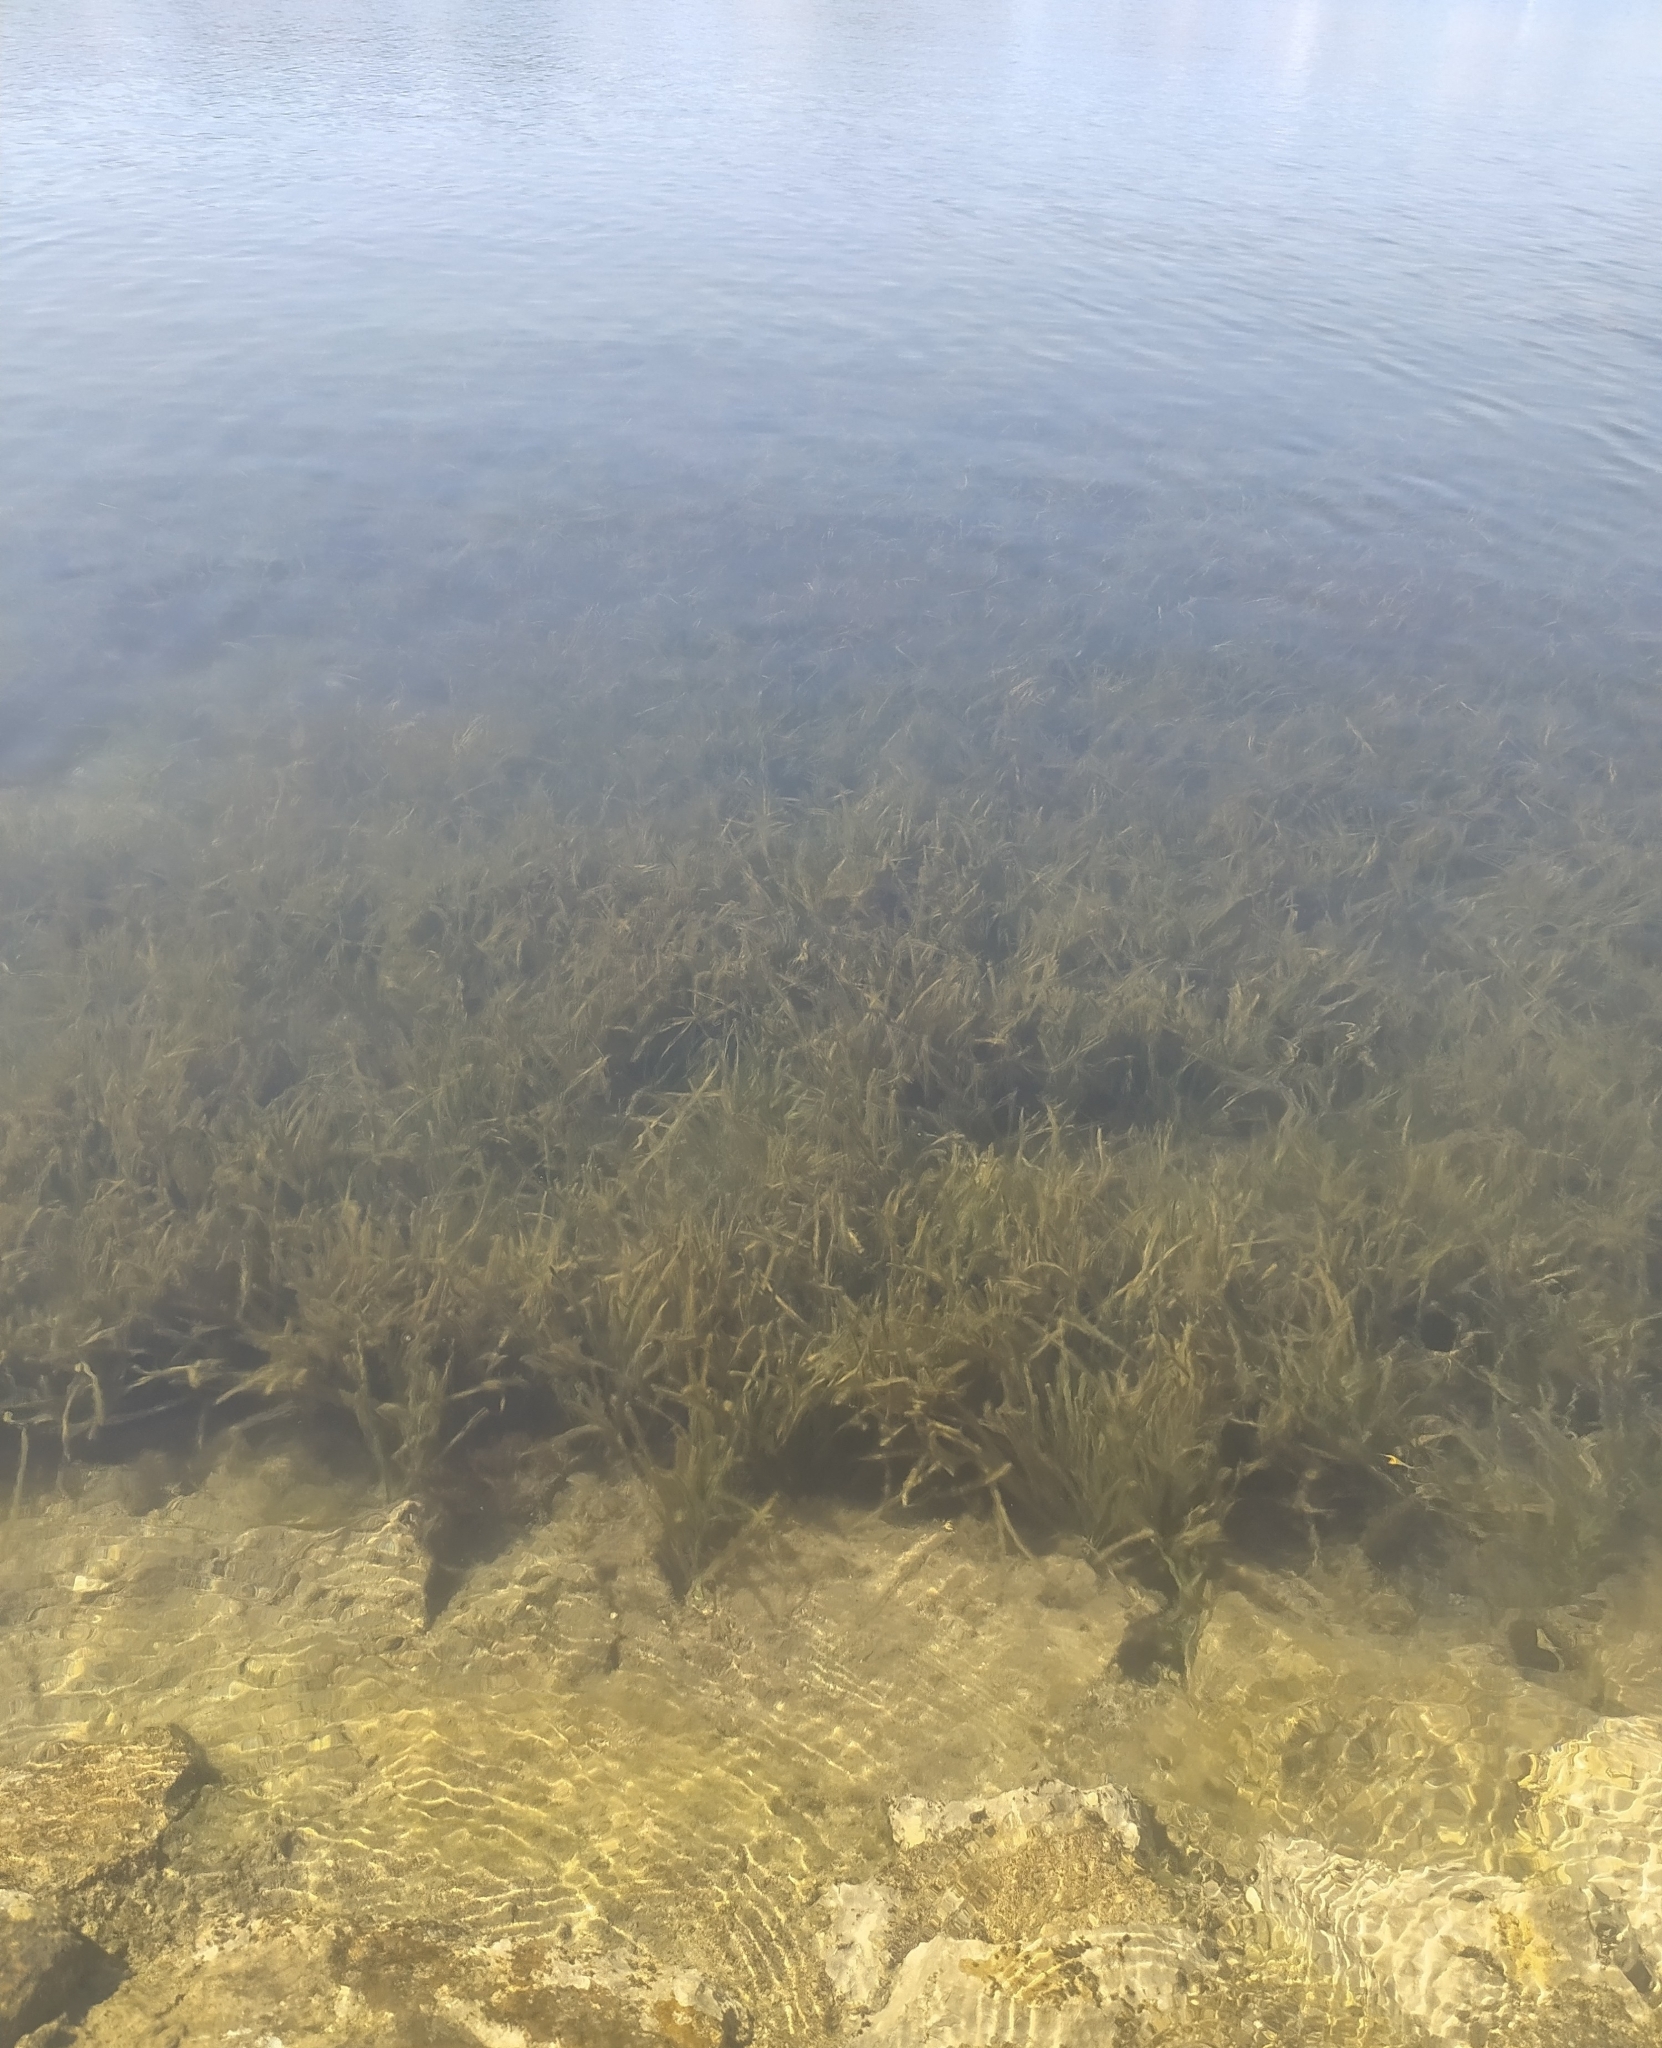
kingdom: Plantae
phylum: Tracheophyta
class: Liliopsida
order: Alismatales
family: Posidoniaceae
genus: Posidonia
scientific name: Posidonia oceanica
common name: Mediterranean tapeweed
